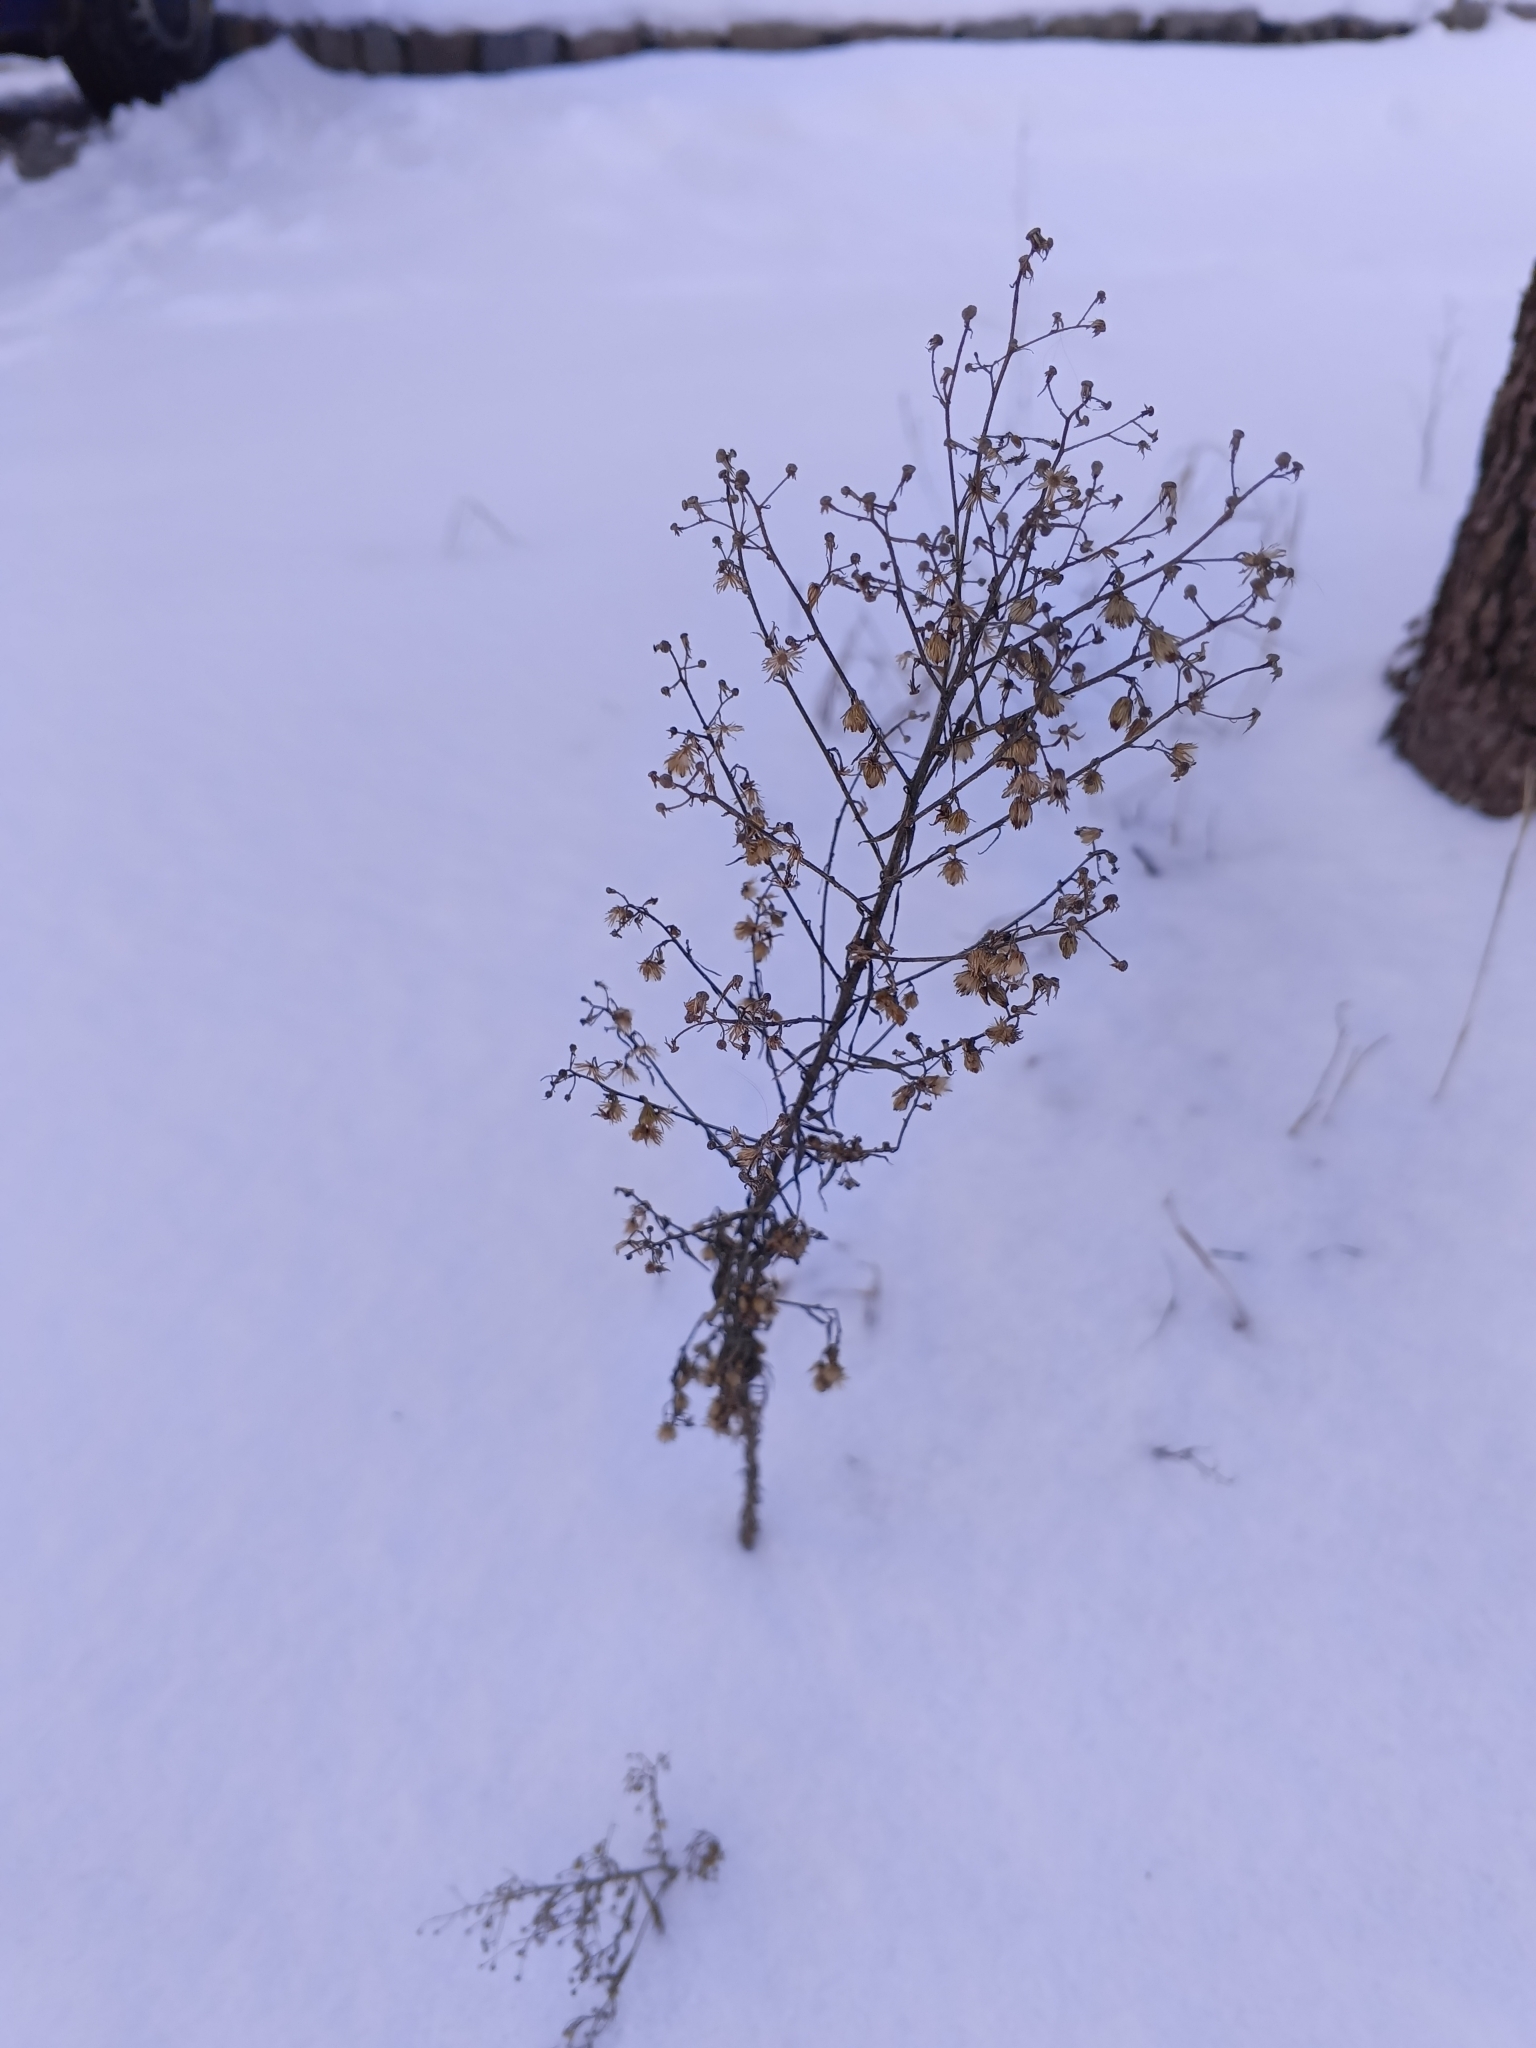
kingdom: Plantae
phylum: Tracheophyta
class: Magnoliopsida
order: Asterales
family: Asteraceae
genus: Erigeron
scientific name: Erigeron canadensis
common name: Canadian fleabane
